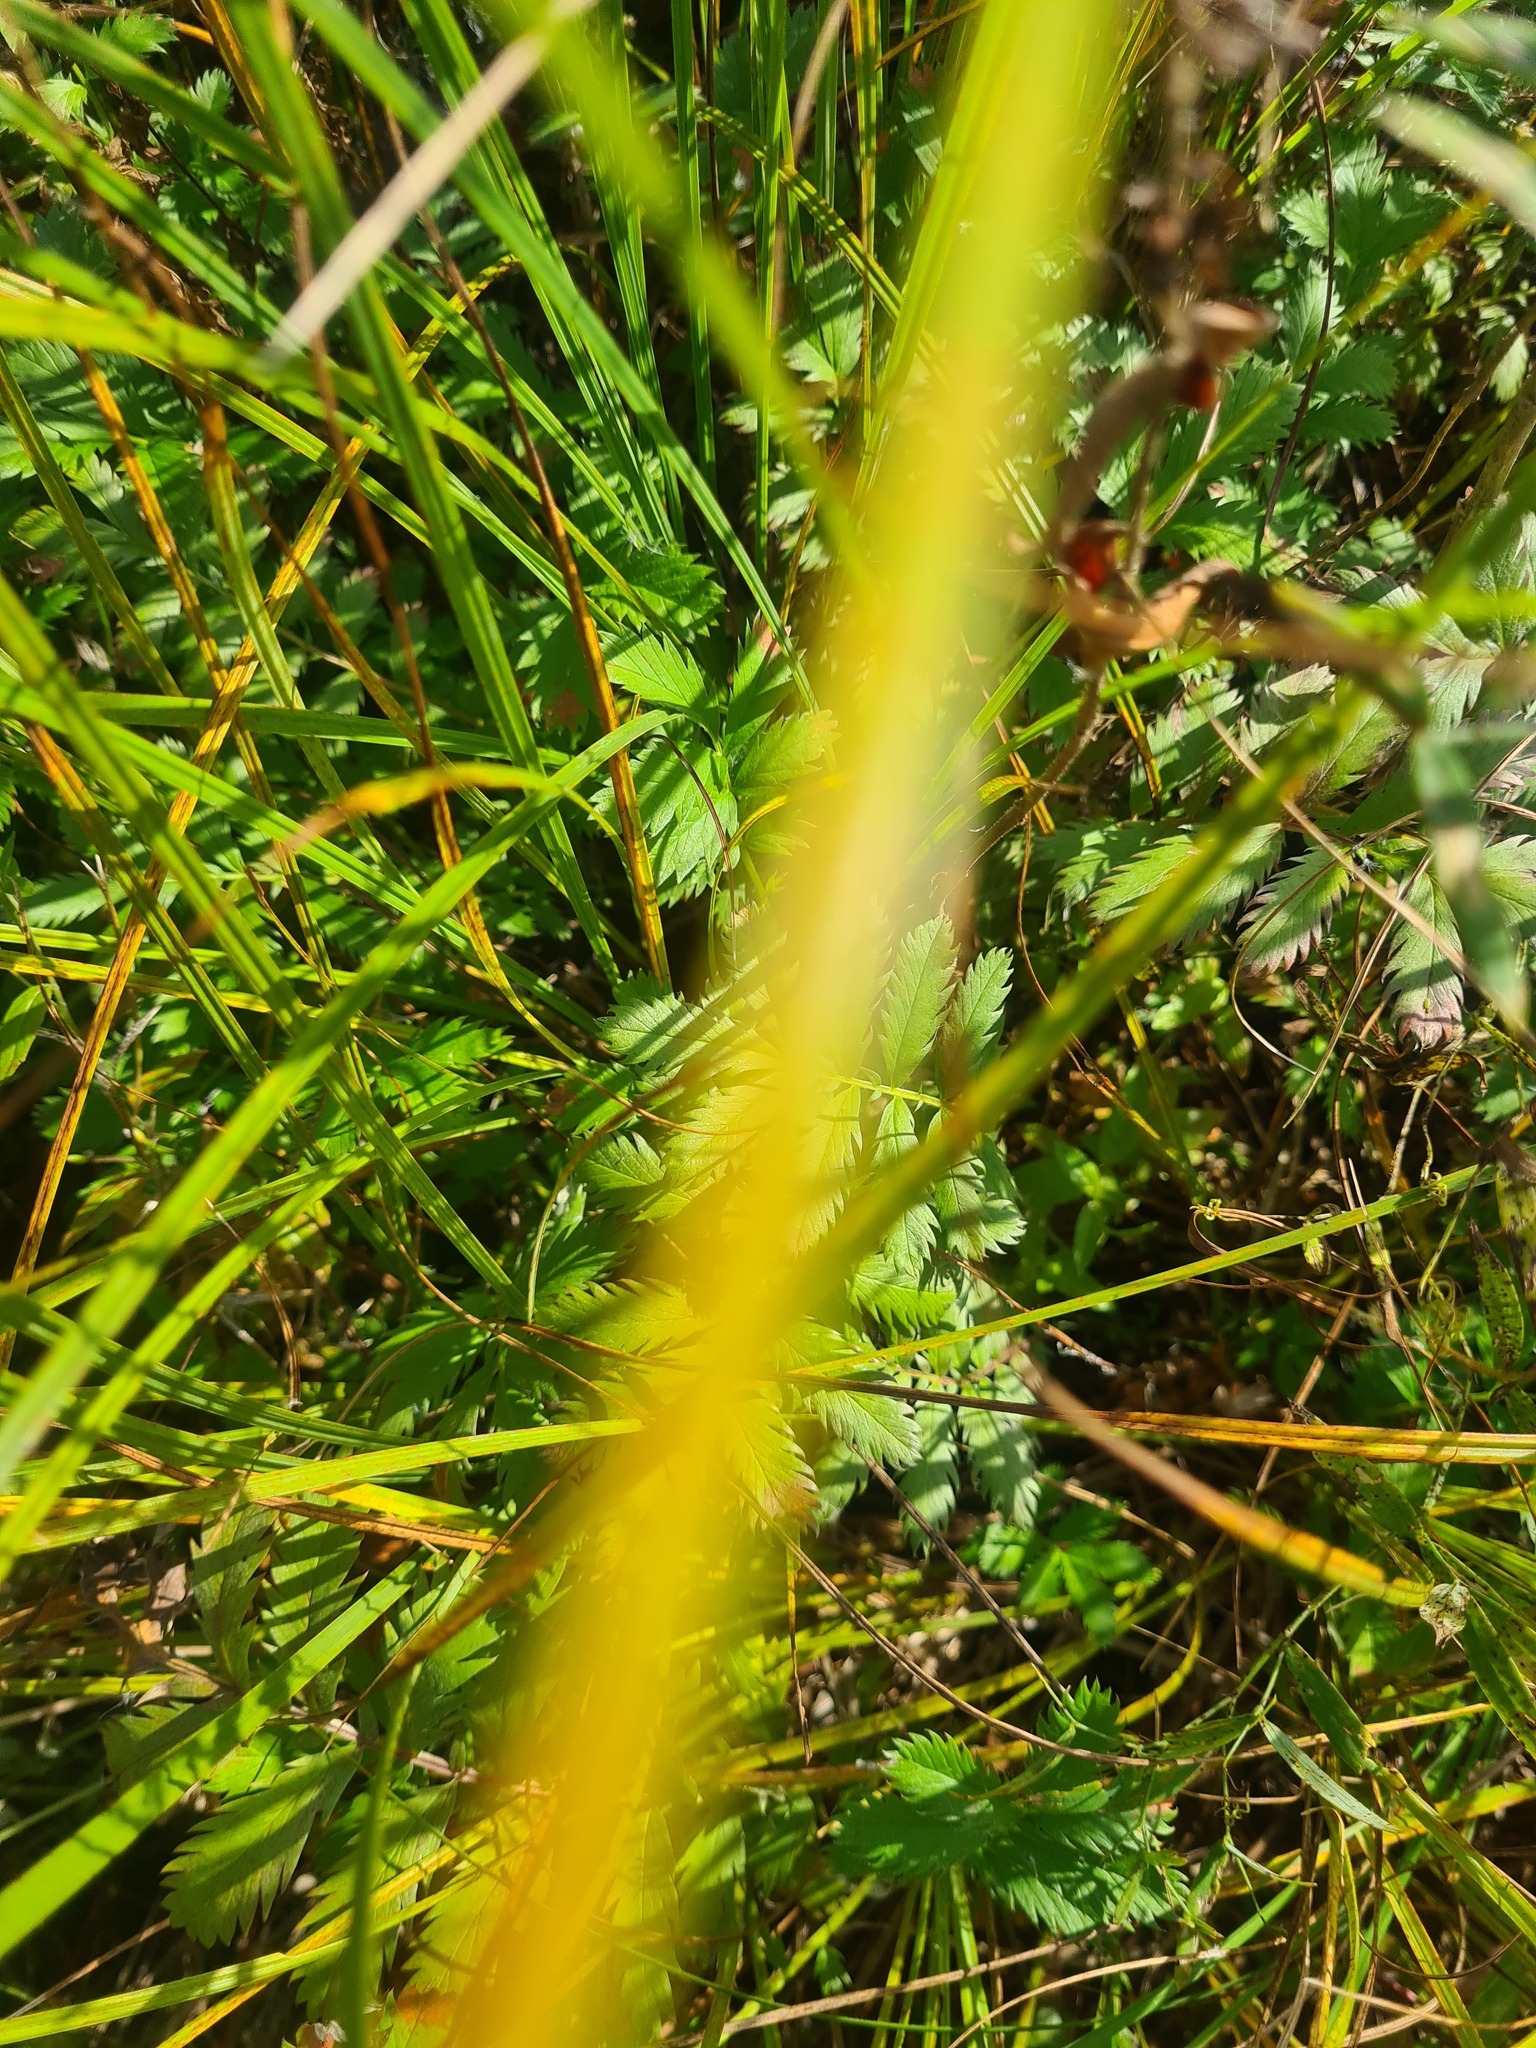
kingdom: Plantae
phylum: Tracheophyta
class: Magnoliopsida
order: Rosales
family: Rosaceae
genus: Argentina
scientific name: Argentina anserina
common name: Common silverweed
